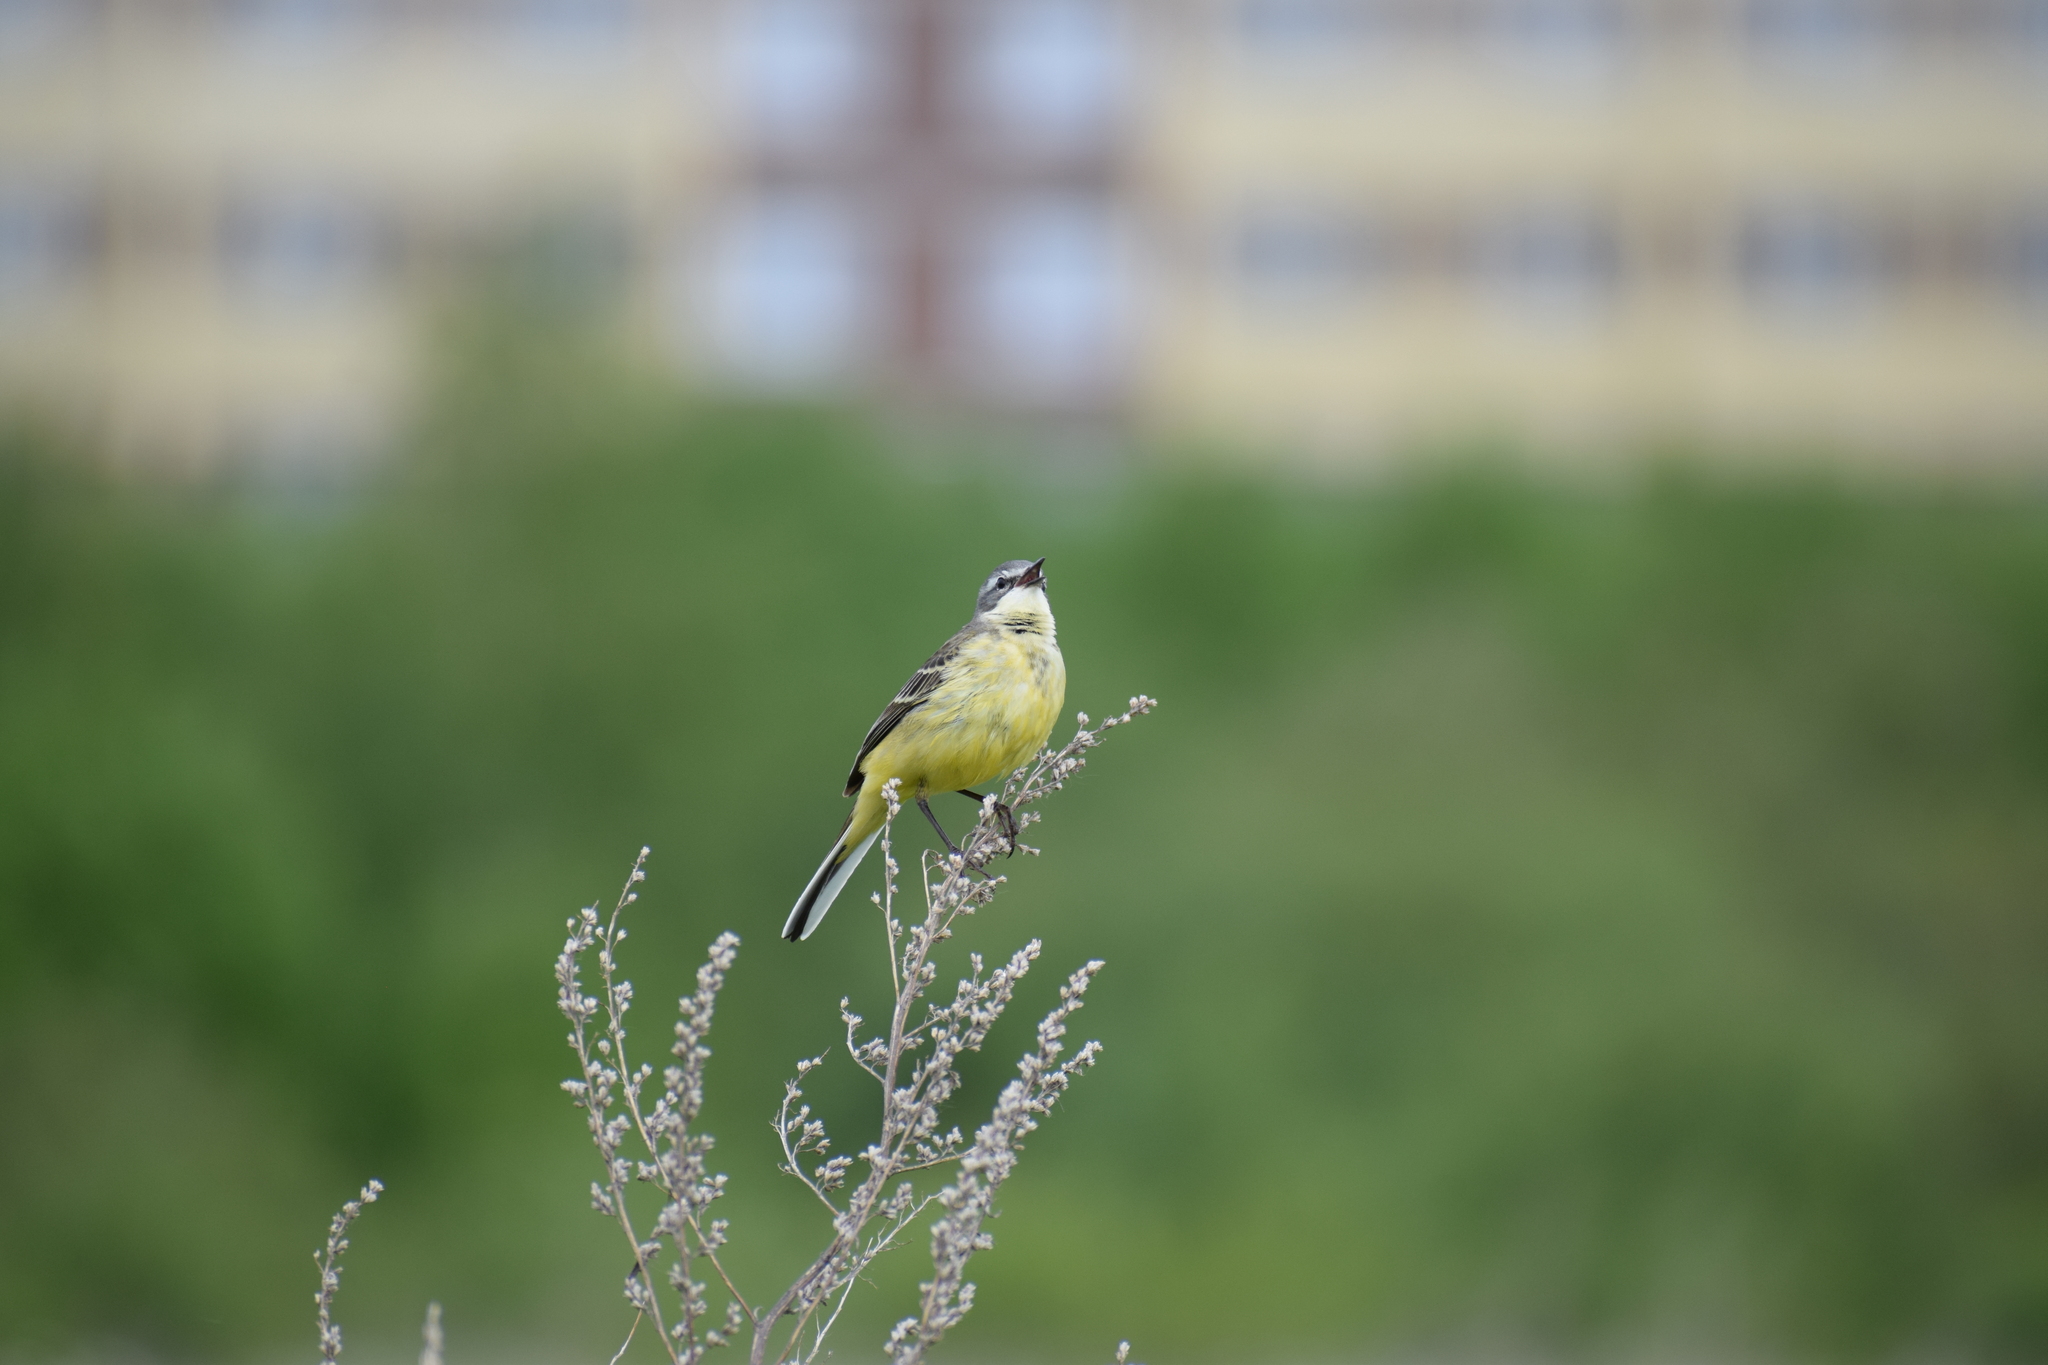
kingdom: Animalia
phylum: Chordata
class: Aves
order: Passeriformes
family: Motacillidae
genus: Motacilla
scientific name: Motacilla flava
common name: Western yellow wagtail
